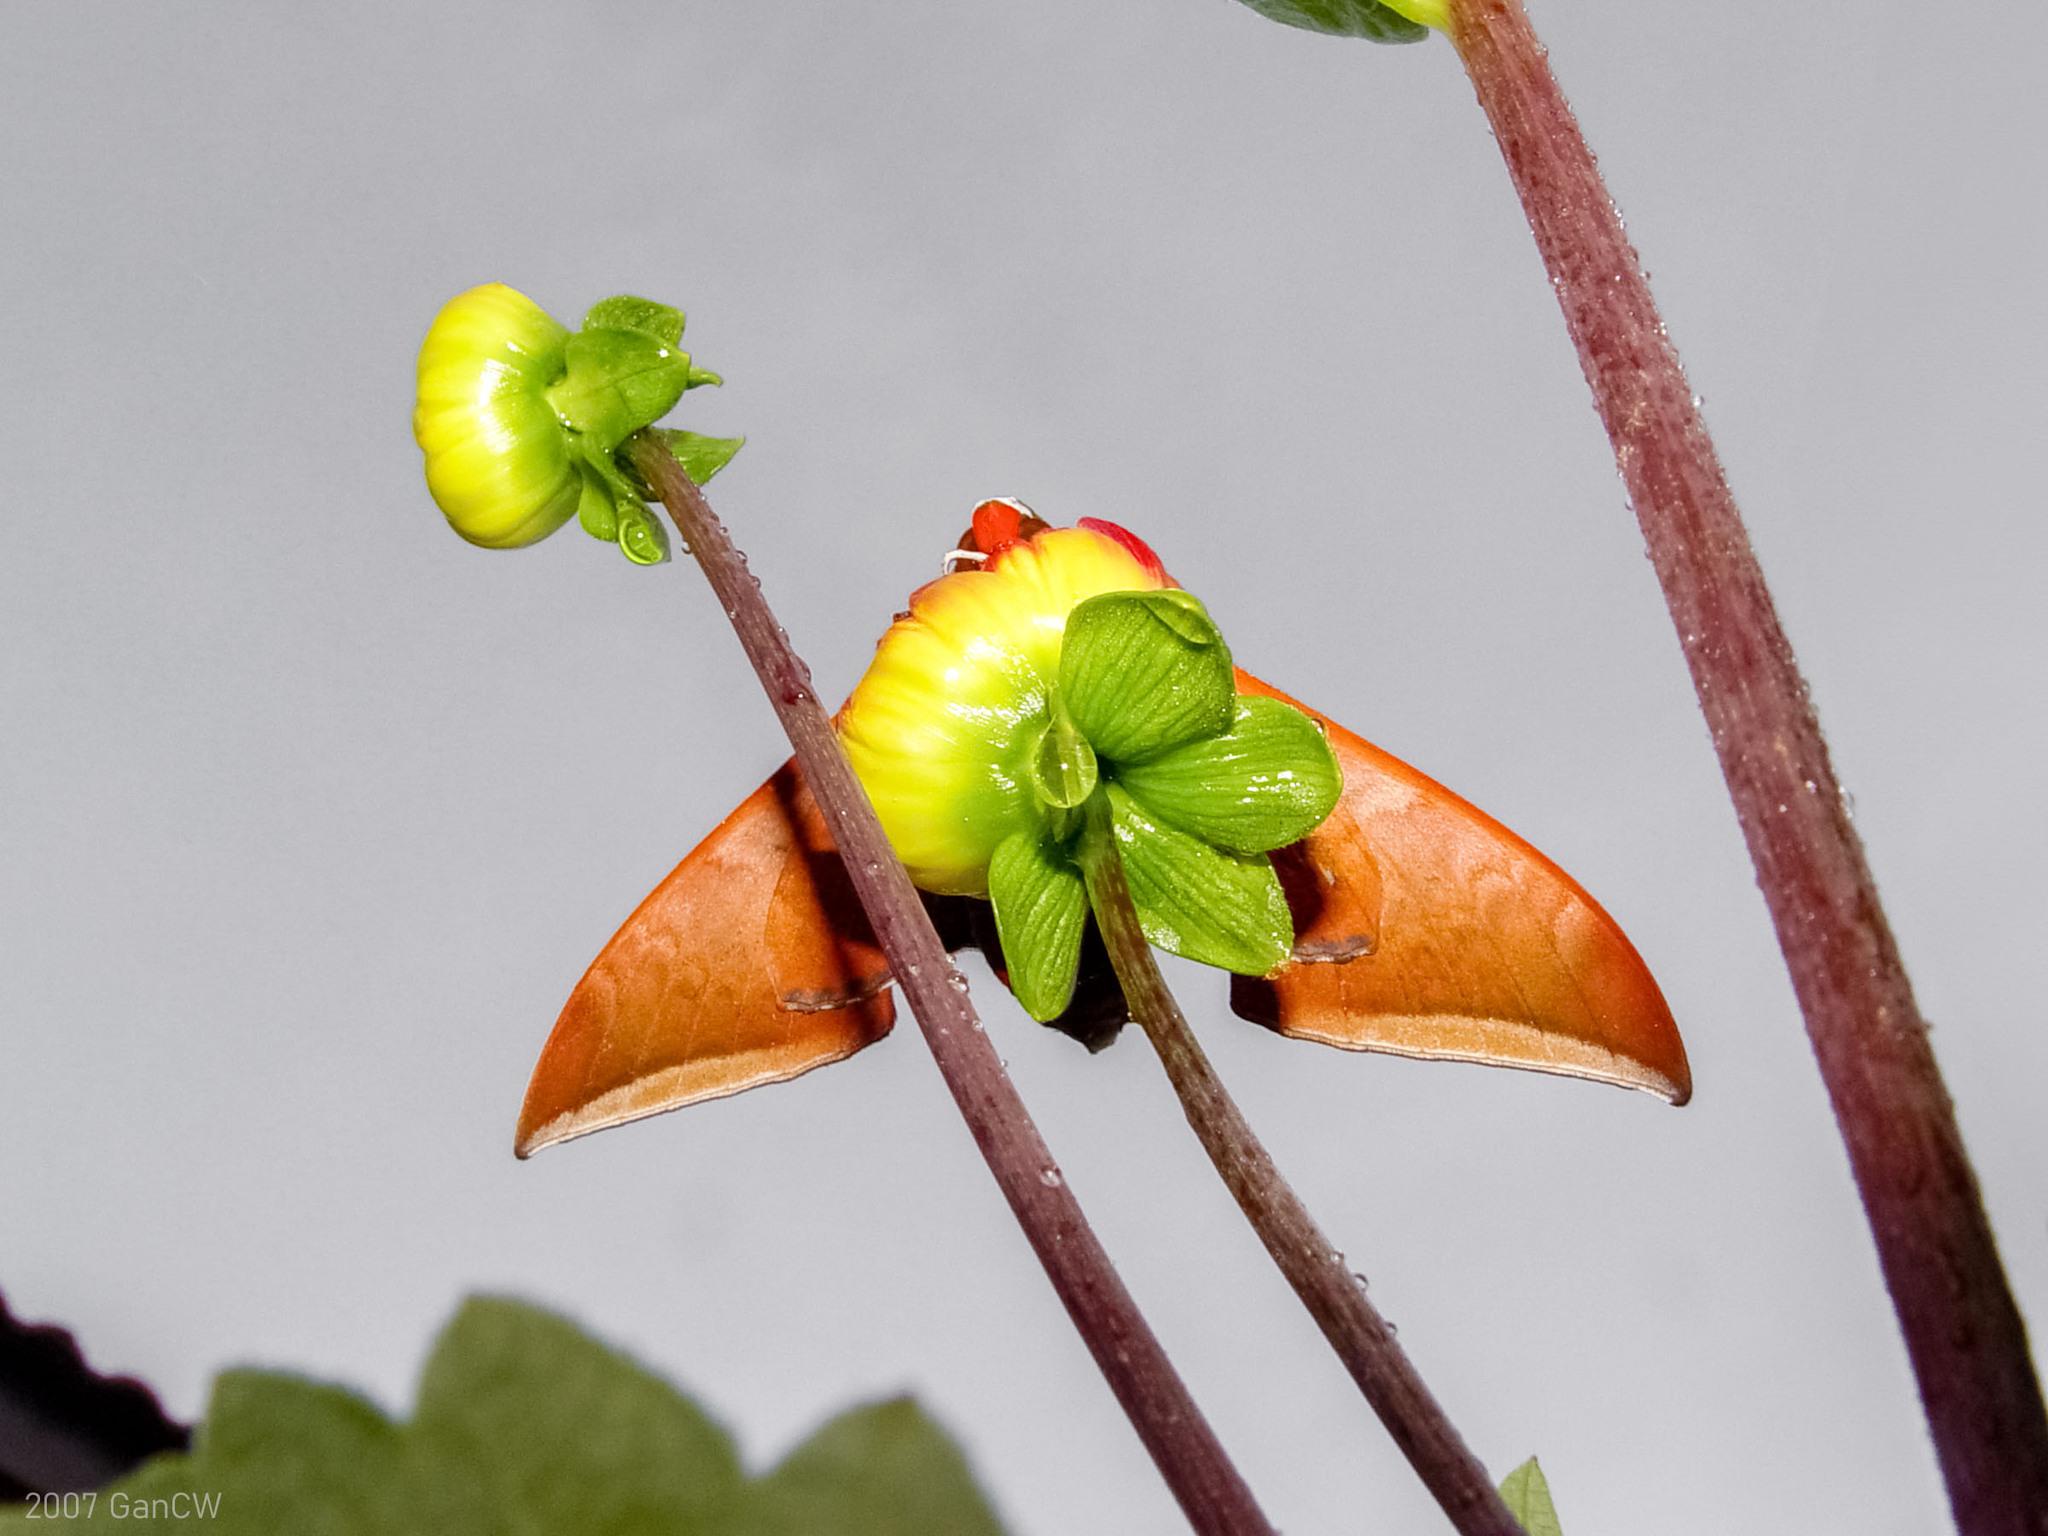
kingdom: Animalia
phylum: Arthropoda
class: Insecta
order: Lepidoptera
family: Sphingidae
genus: Ambulyx
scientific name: Ambulyx moorei
